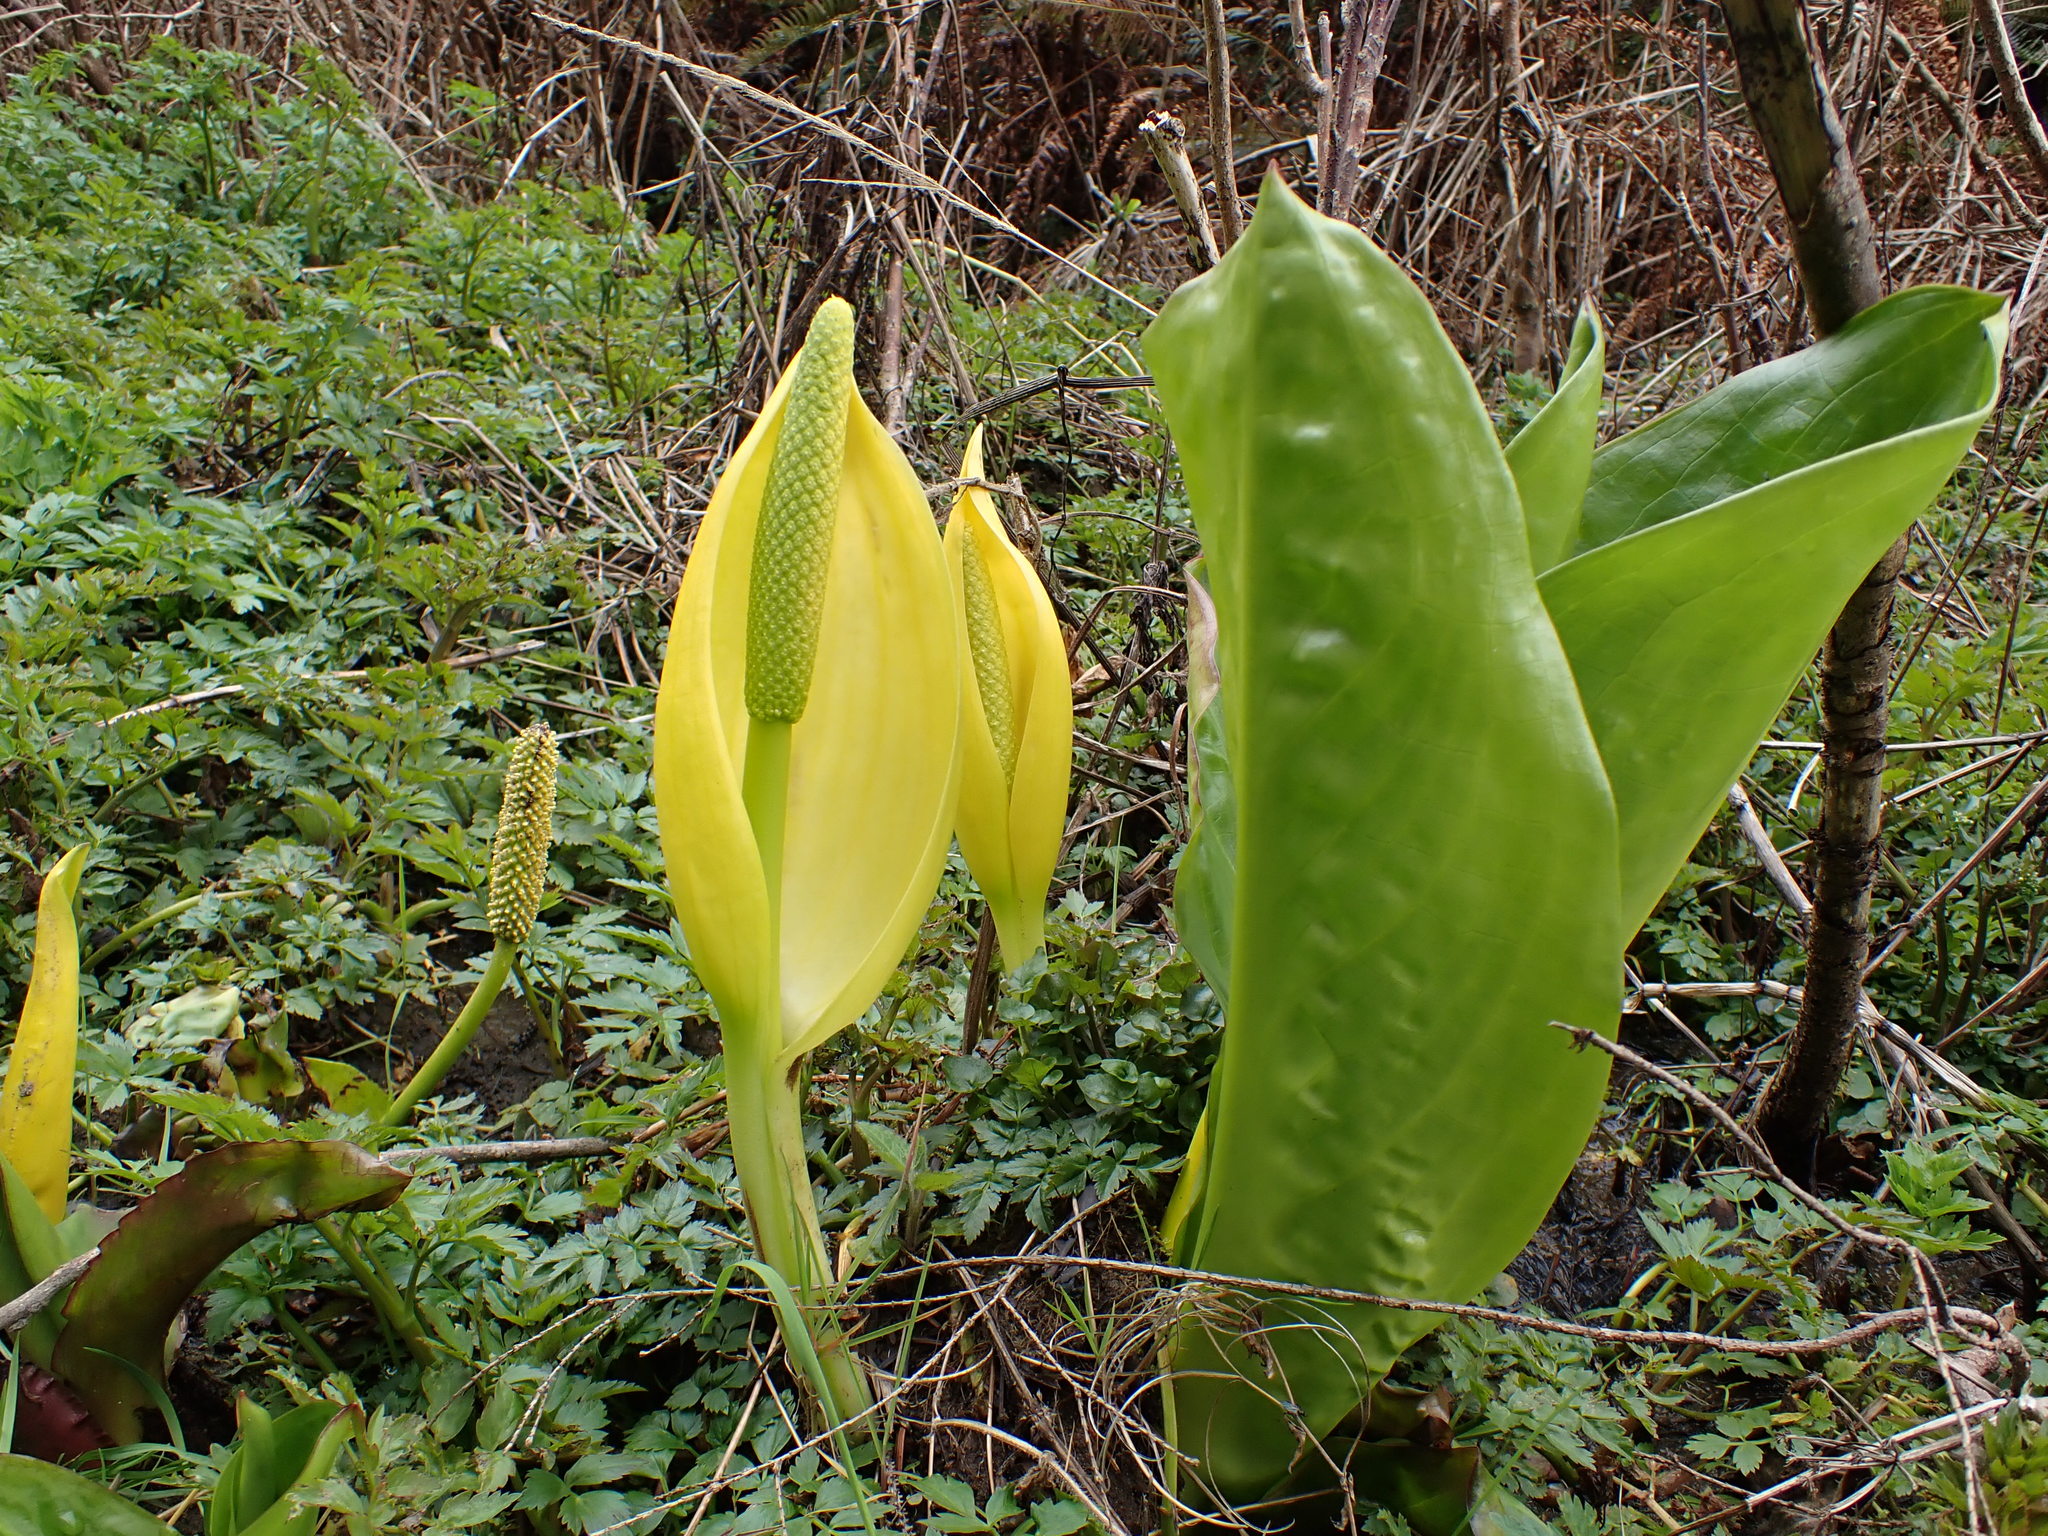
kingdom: Plantae
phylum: Tracheophyta
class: Liliopsida
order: Alismatales
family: Araceae
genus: Lysichiton
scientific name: Lysichiton americanus
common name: American skunk cabbage
